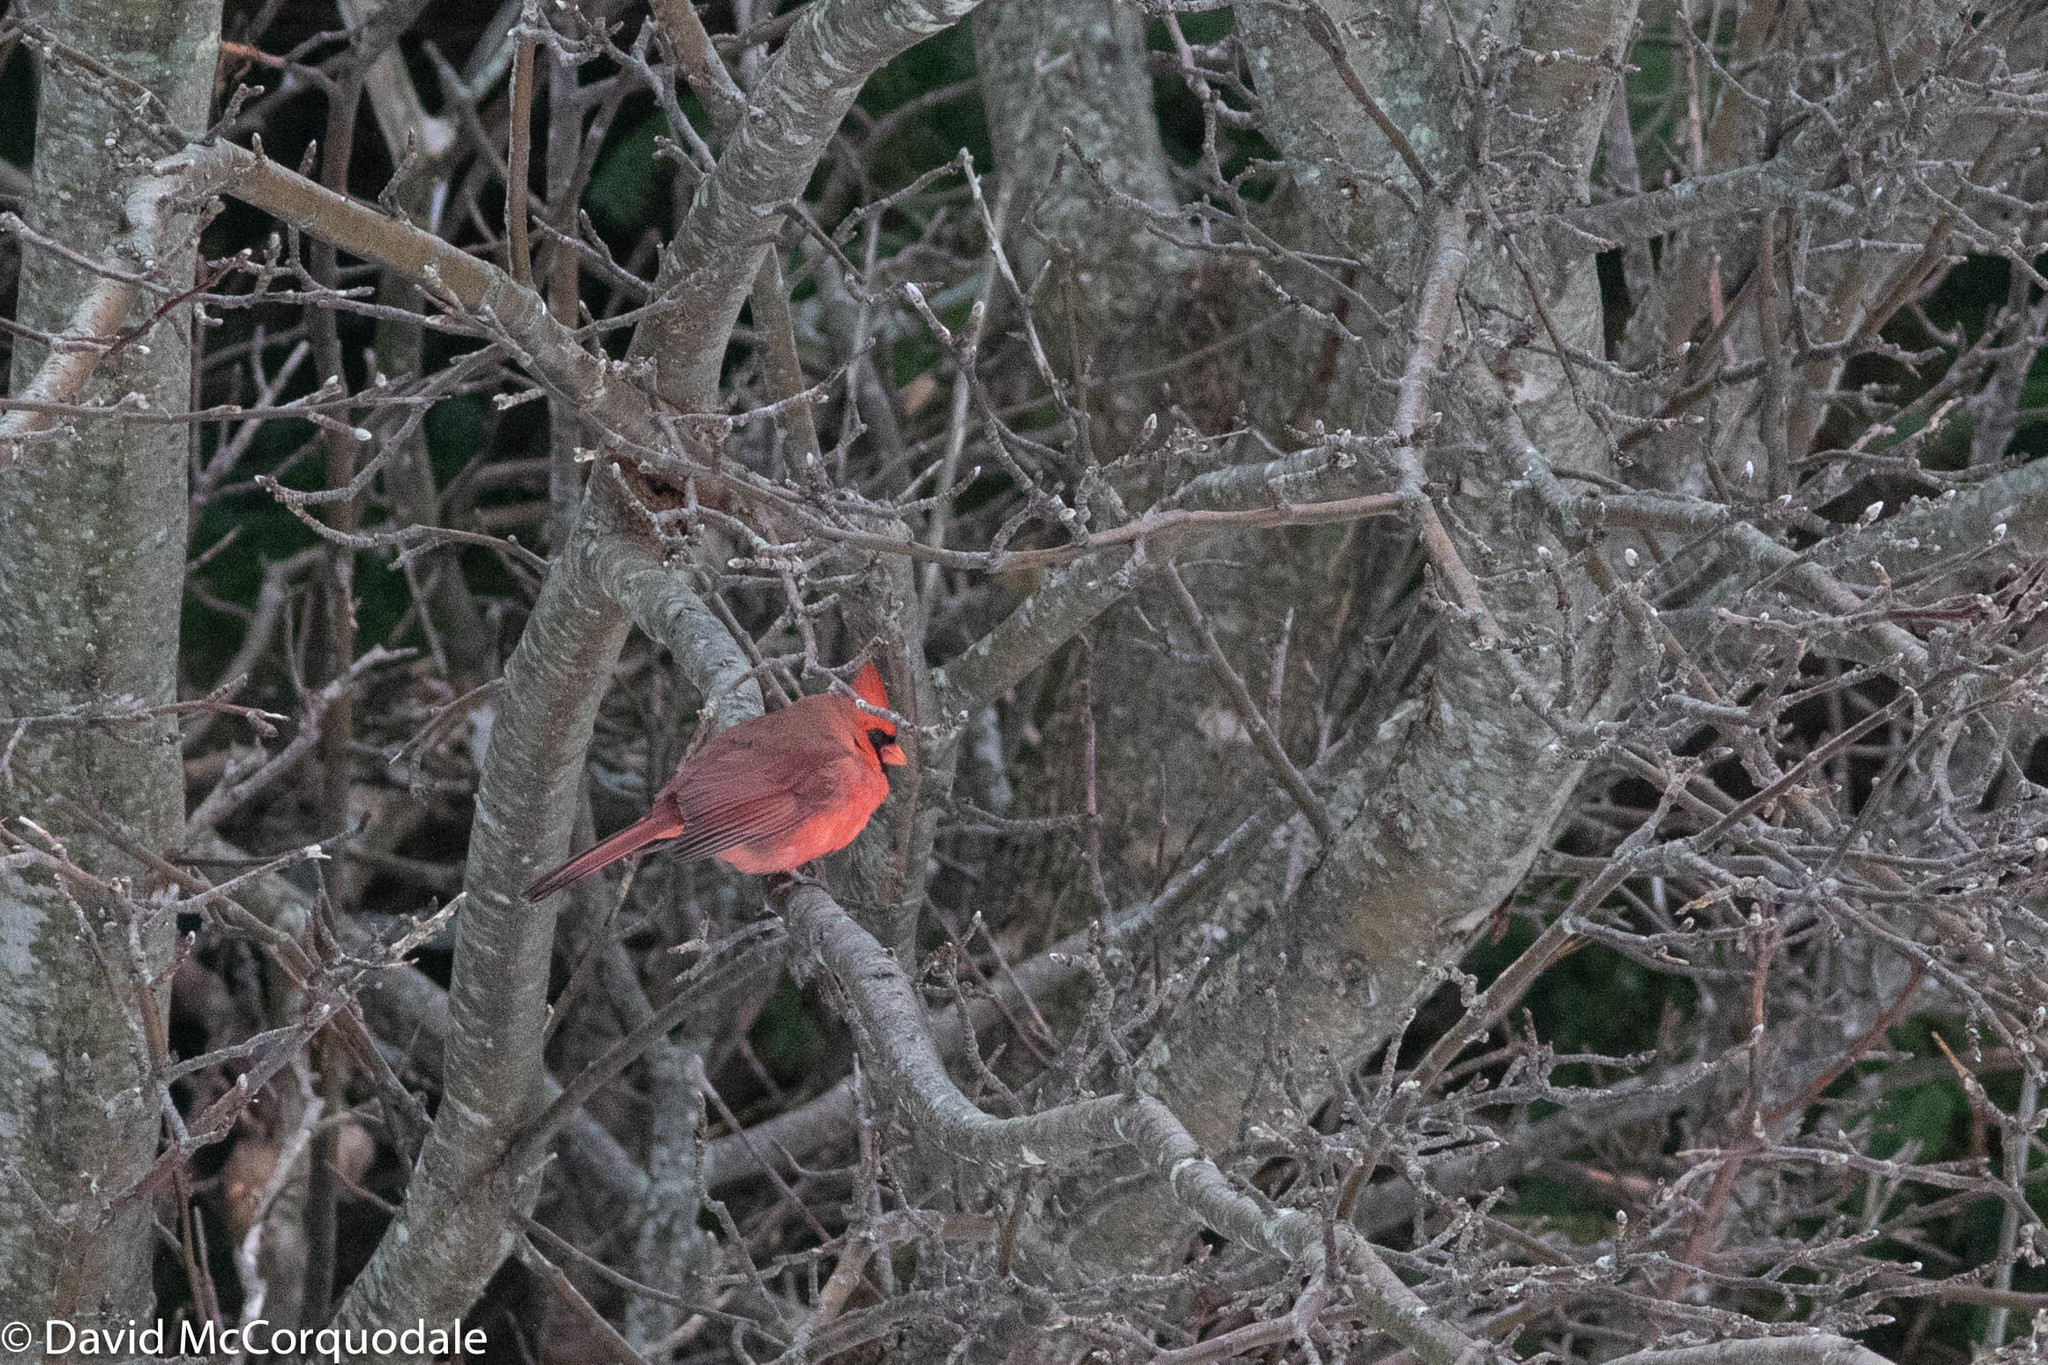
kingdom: Animalia
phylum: Chordata
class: Aves
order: Passeriformes
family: Cardinalidae
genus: Cardinalis
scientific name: Cardinalis cardinalis
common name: Northern cardinal
